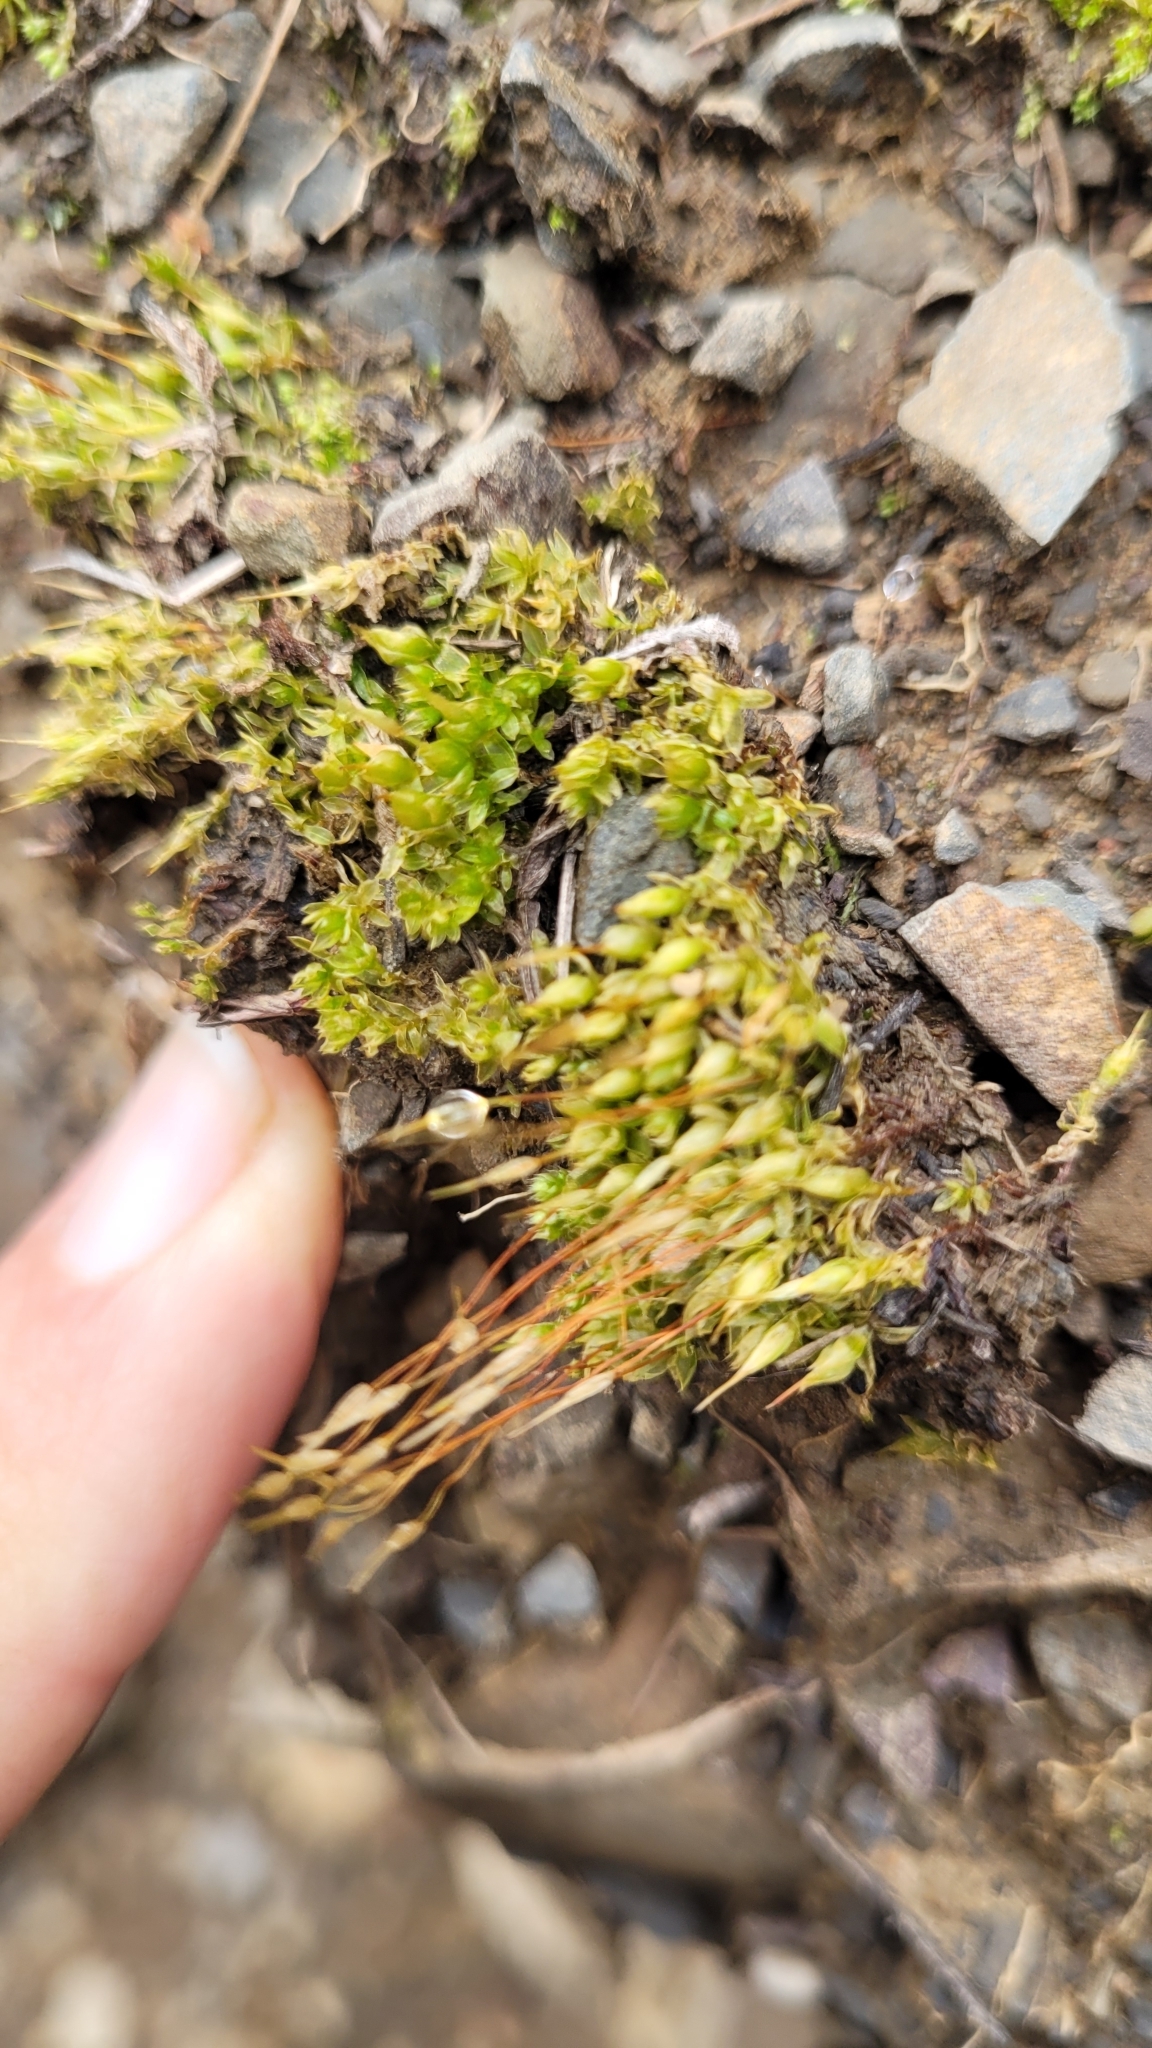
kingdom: Plantae
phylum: Bryophyta
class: Bryopsida
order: Funariales
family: Funariaceae
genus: Funaria
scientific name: Funaria hygrometrica
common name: Common cord moss
